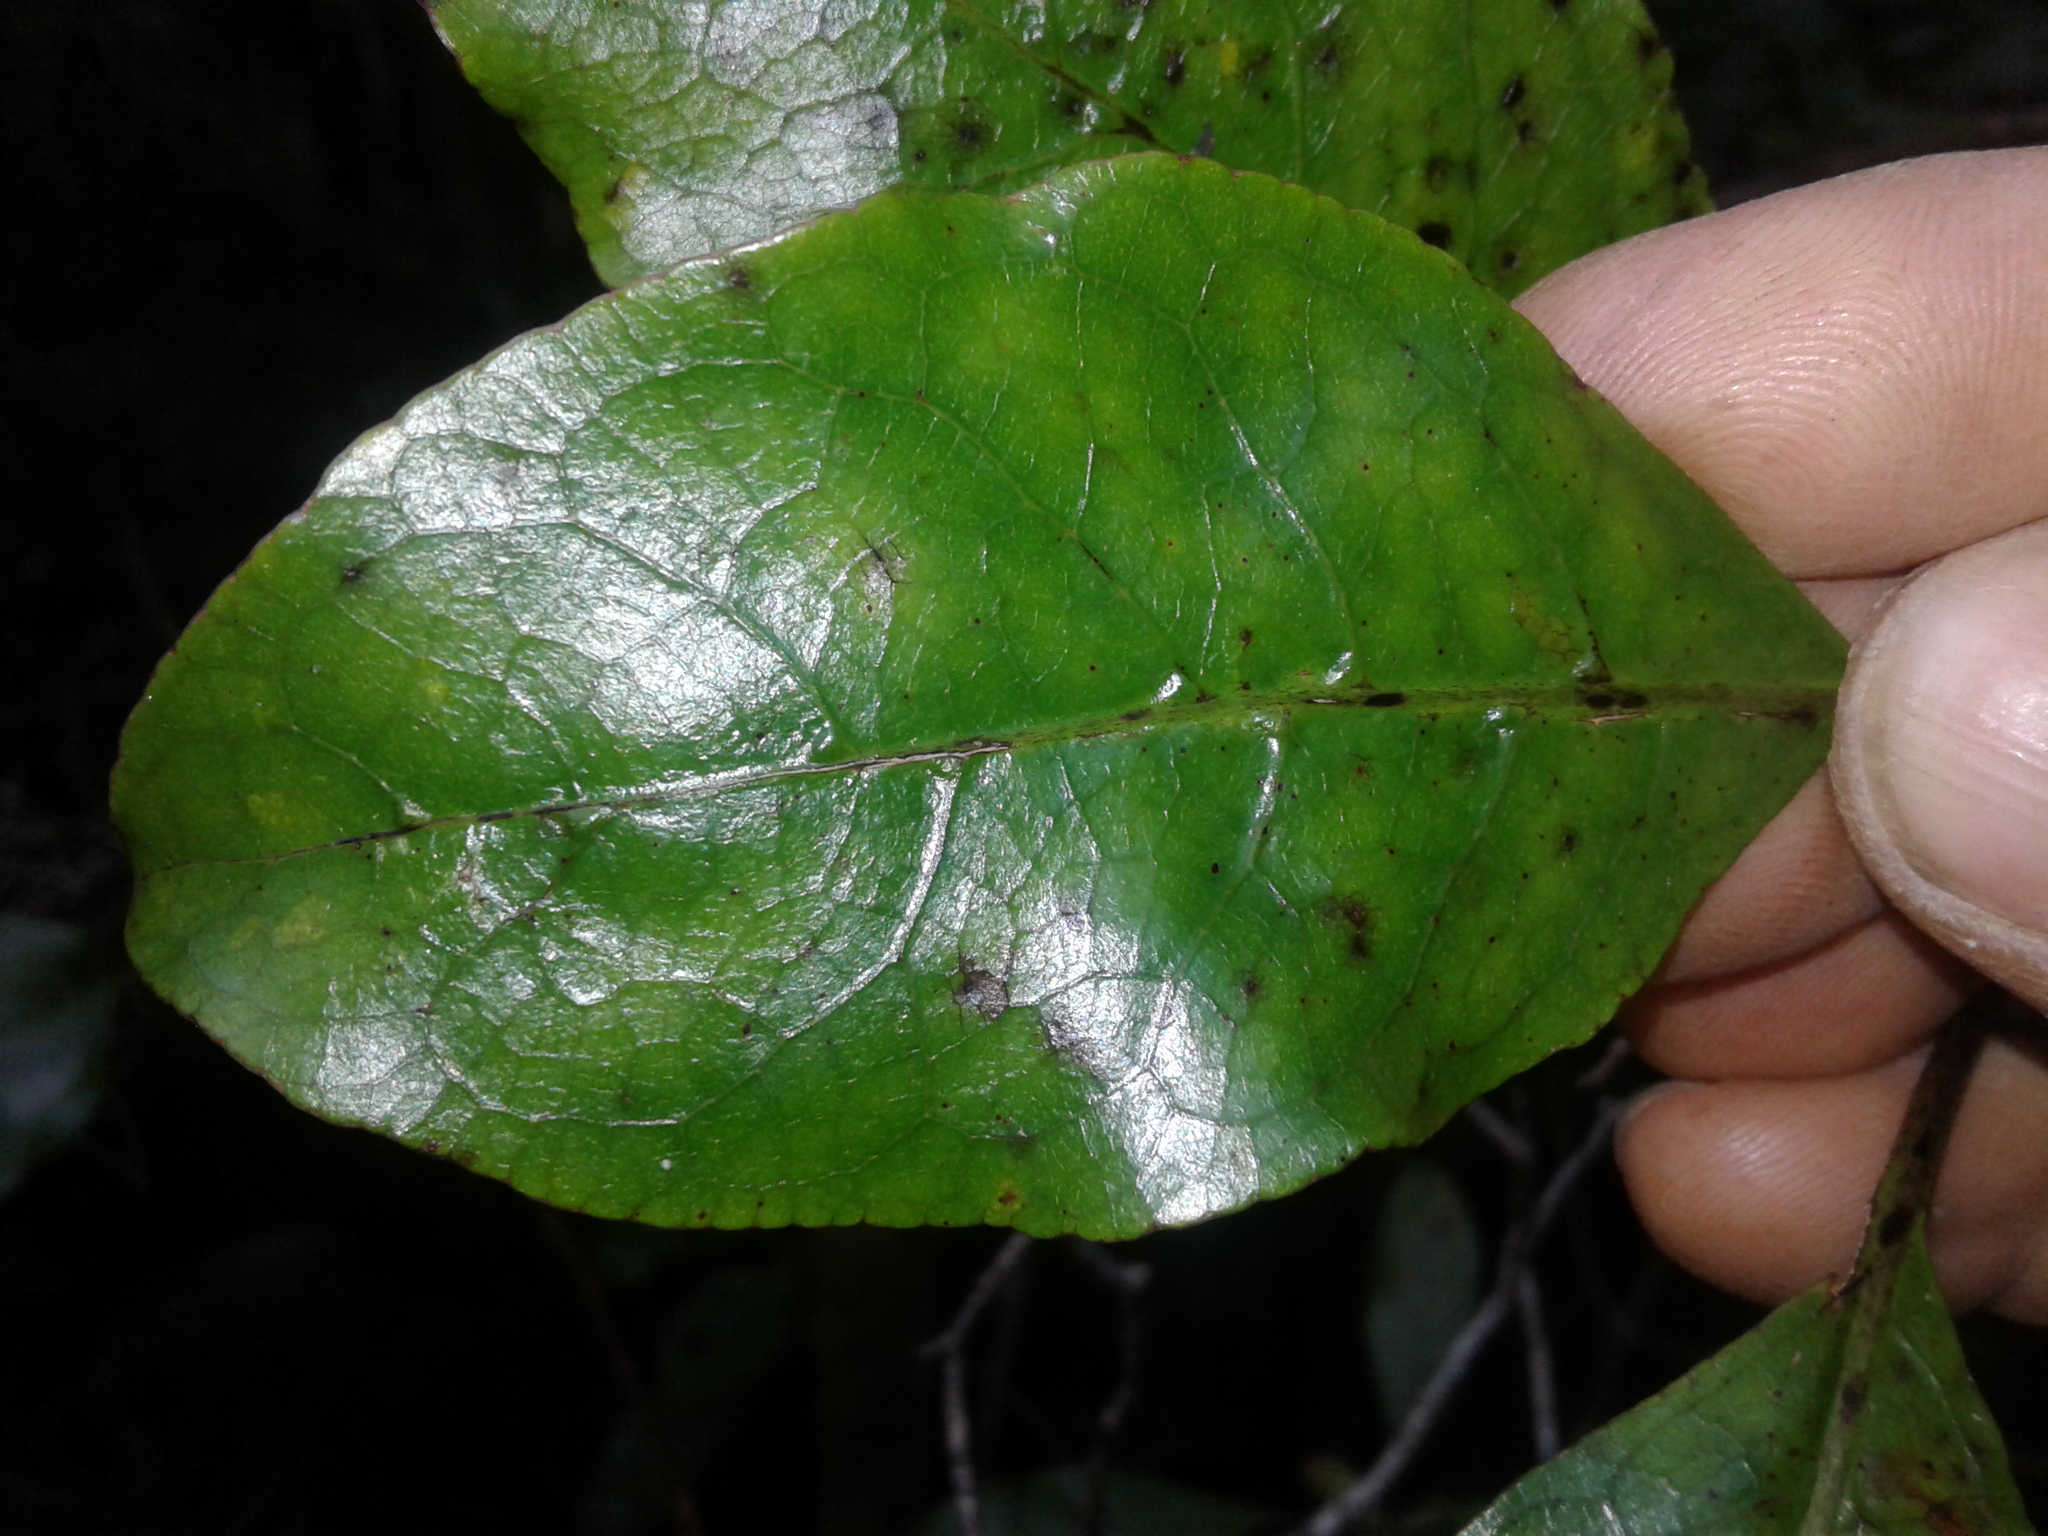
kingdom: Plantae
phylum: Tracheophyta
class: Magnoliopsida
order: Gentianales
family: Rubiaceae
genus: Coprosma
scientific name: Coprosma autumnalis
